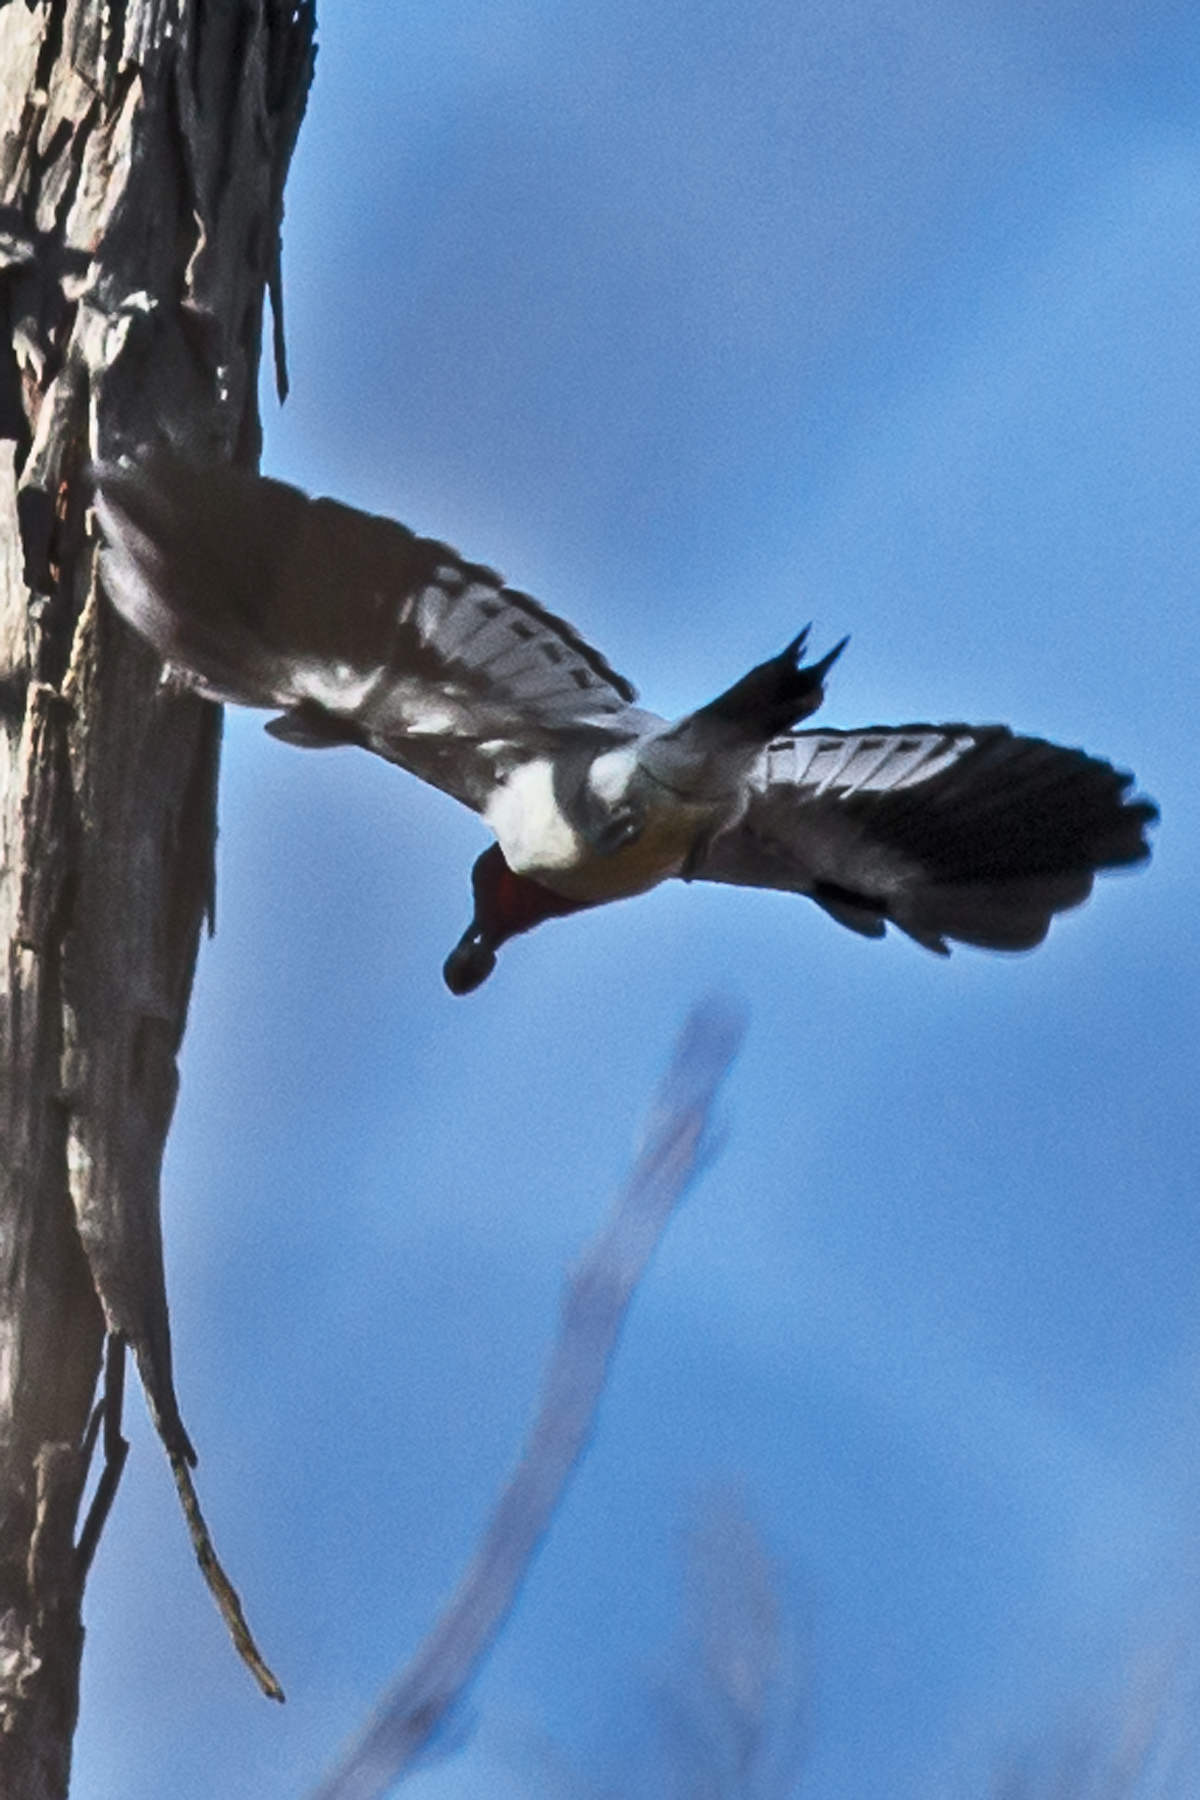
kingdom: Animalia
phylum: Chordata
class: Aves
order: Piciformes
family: Picidae
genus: Melanerpes
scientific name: Melanerpes erythrocephalus
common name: Red-headed woodpecker
